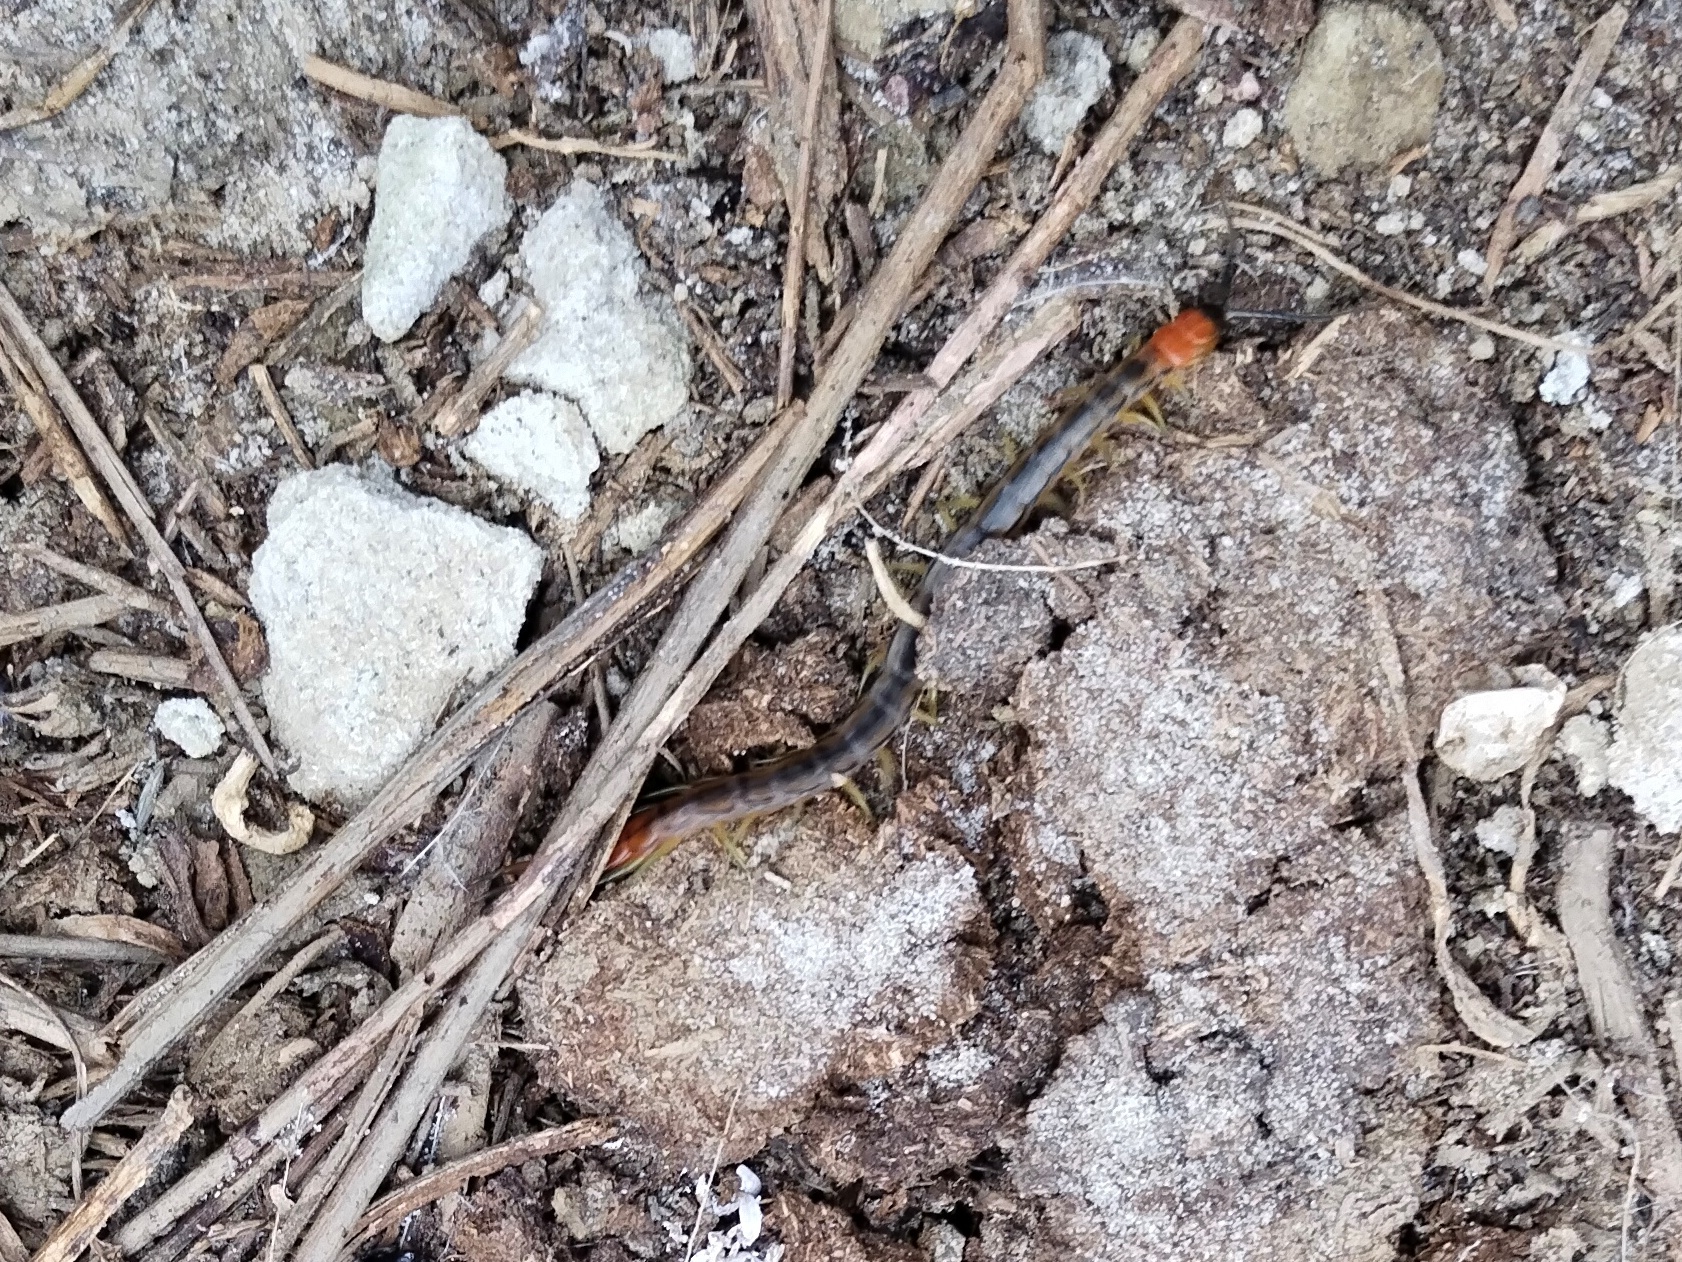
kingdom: Animalia
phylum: Arthropoda
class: Chilopoda
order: Scolopendromorpha
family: Scolopendridae
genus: Scolopendra
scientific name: Scolopendra cingulata
